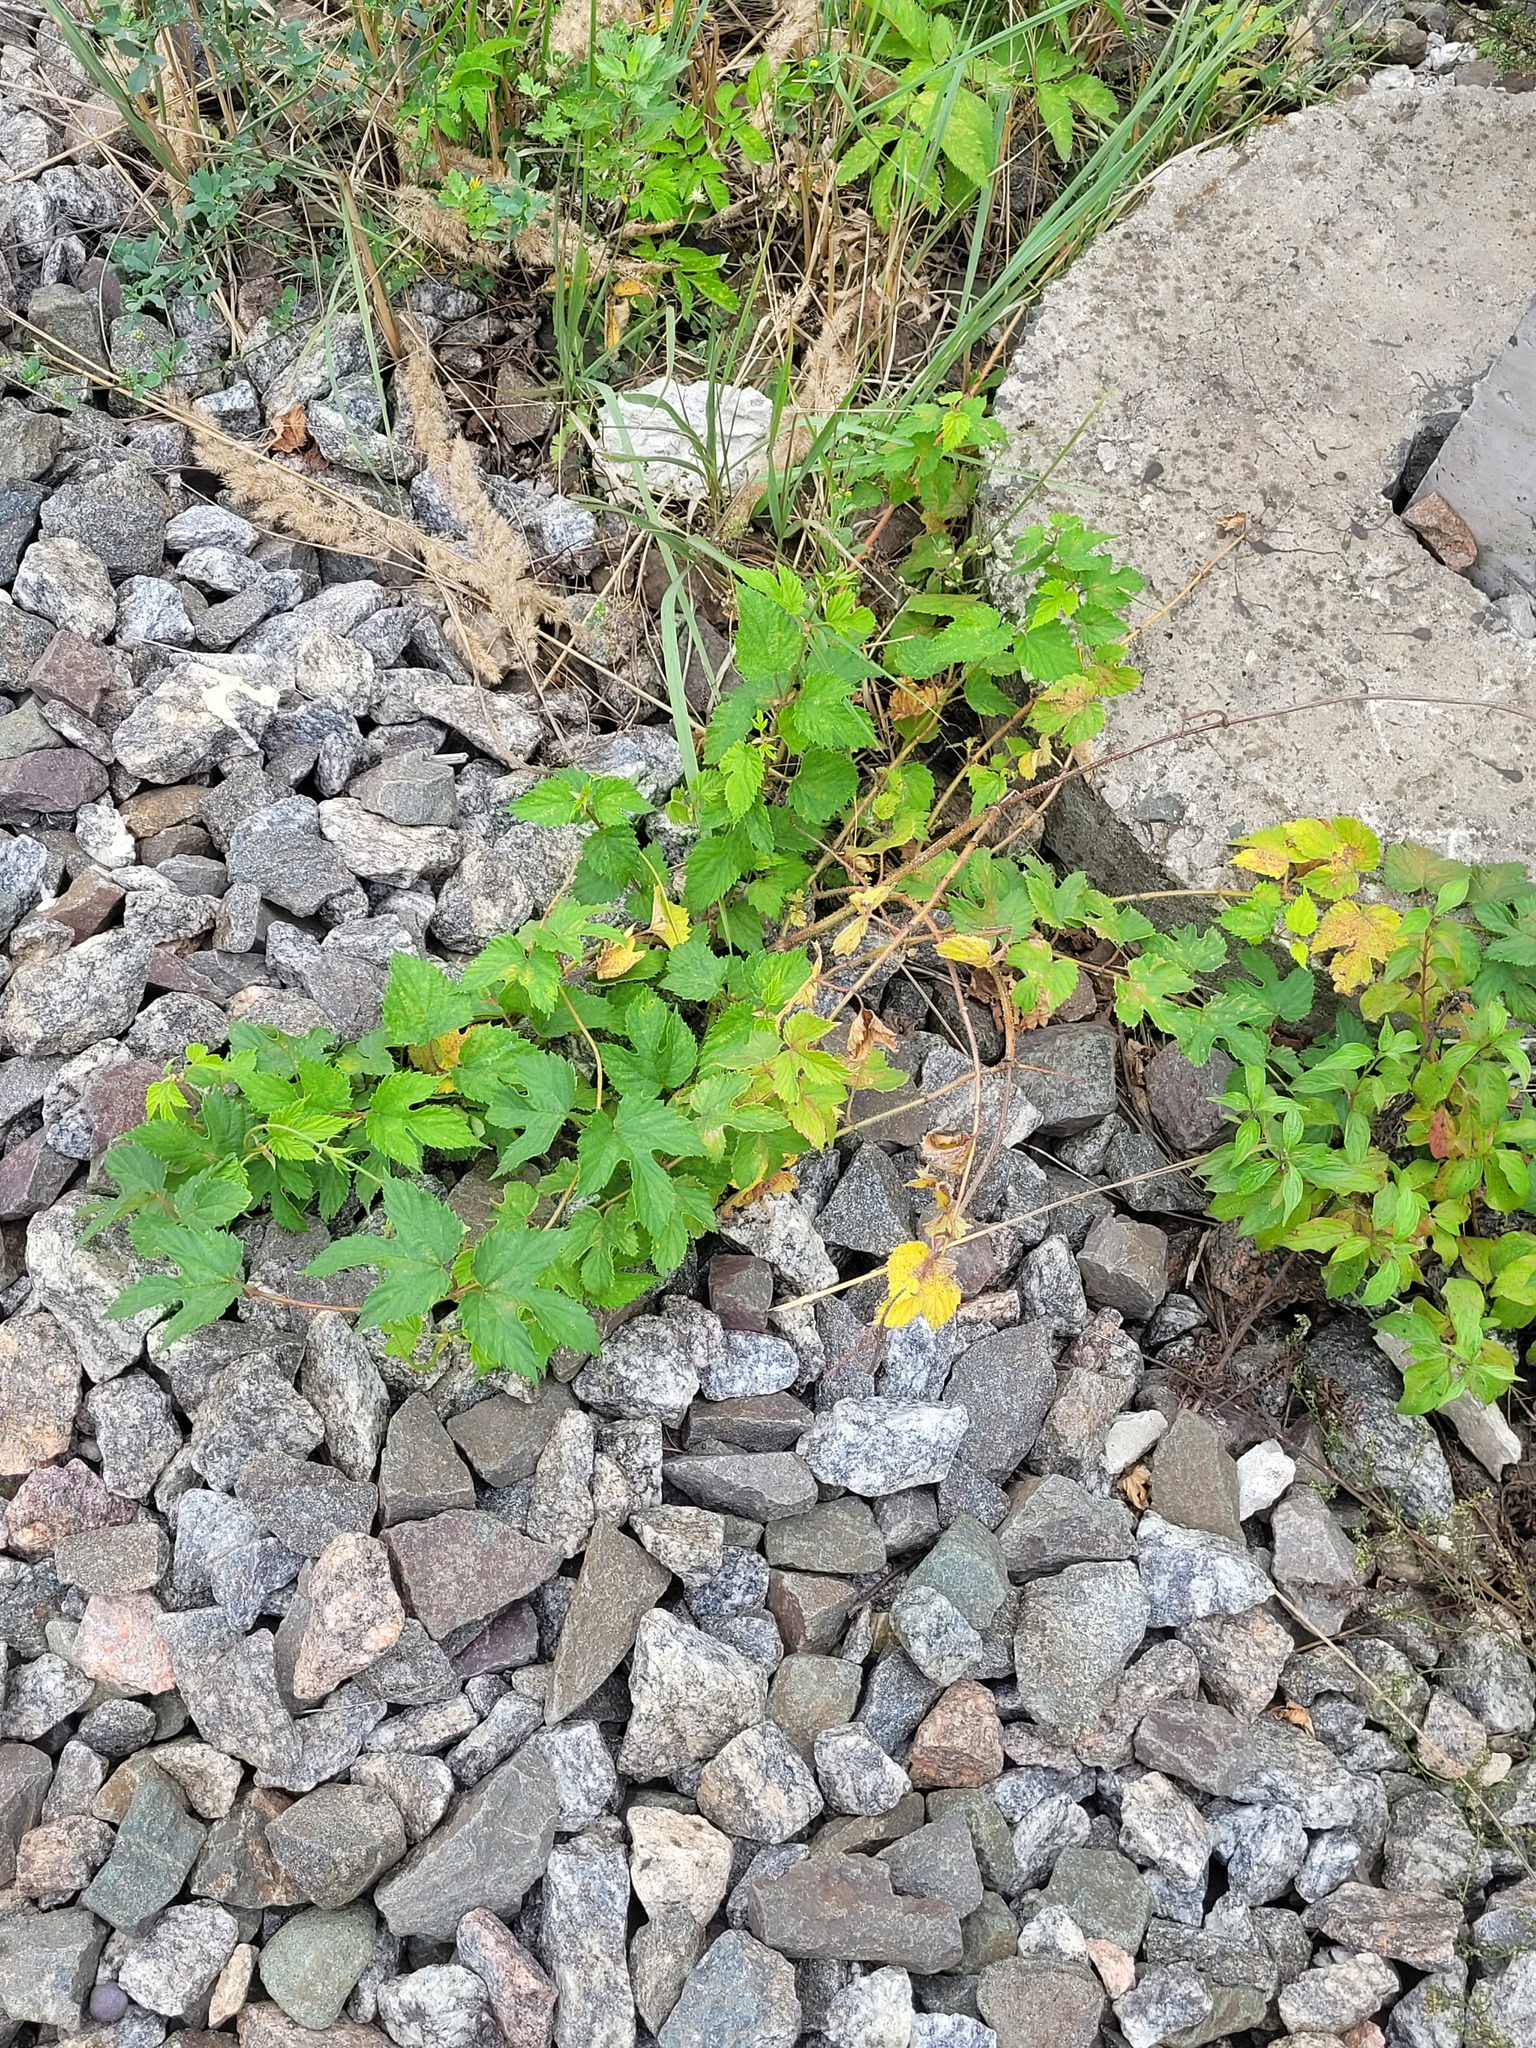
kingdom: Plantae
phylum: Tracheophyta
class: Magnoliopsida
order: Rosales
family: Cannabaceae
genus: Humulus
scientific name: Humulus lupulus
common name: Hop
